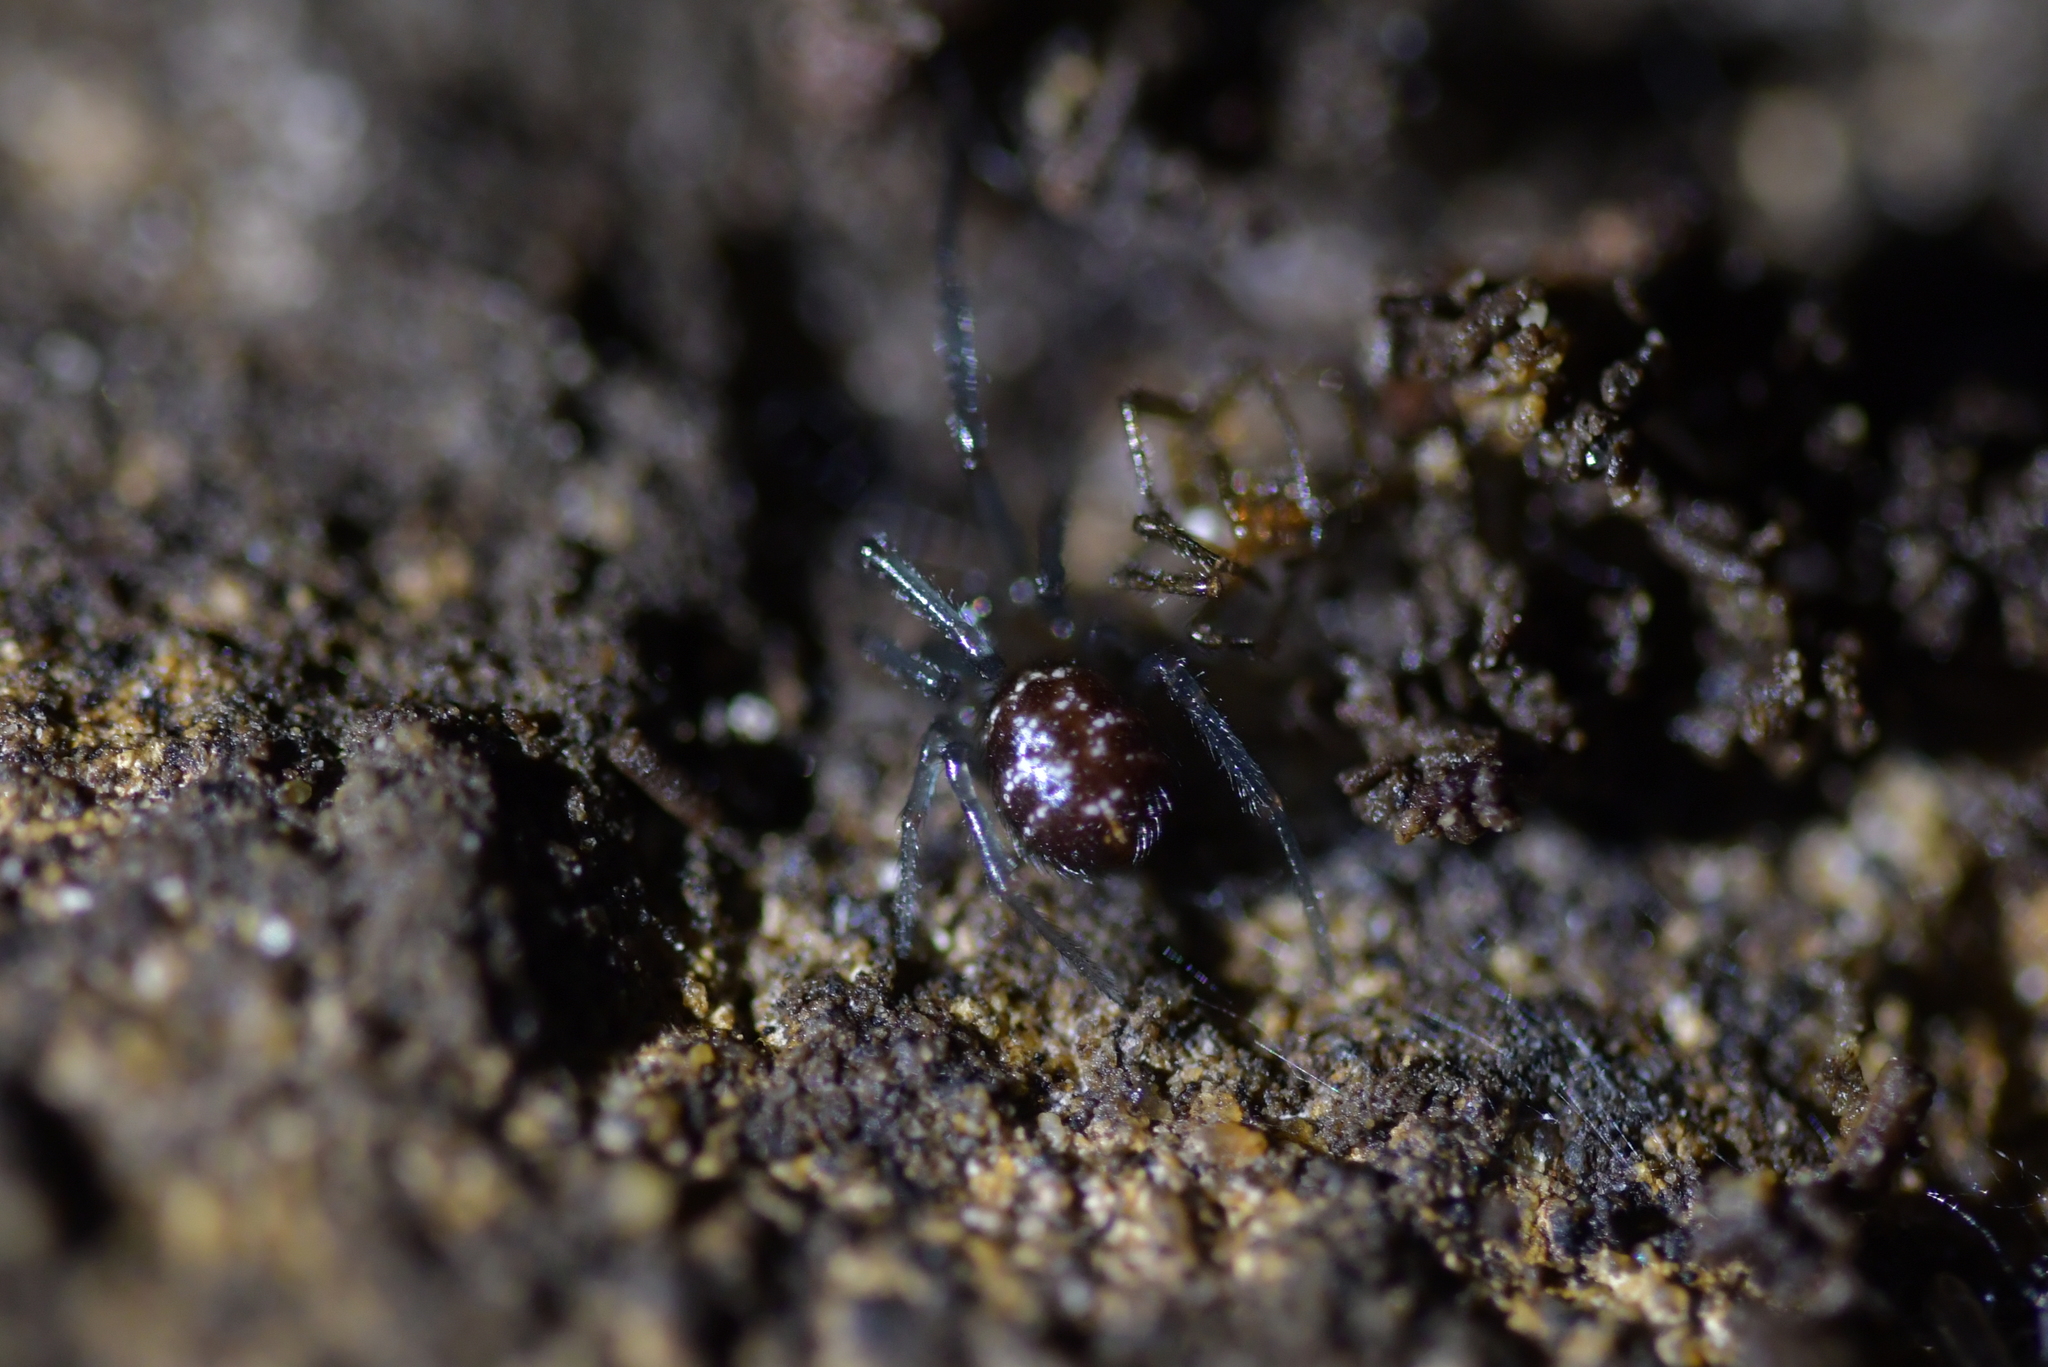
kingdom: Animalia
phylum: Arthropoda
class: Arachnida
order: Araneae
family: Theridiidae
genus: Steatoda
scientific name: Steatoda capensis
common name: Cobweb weaver
